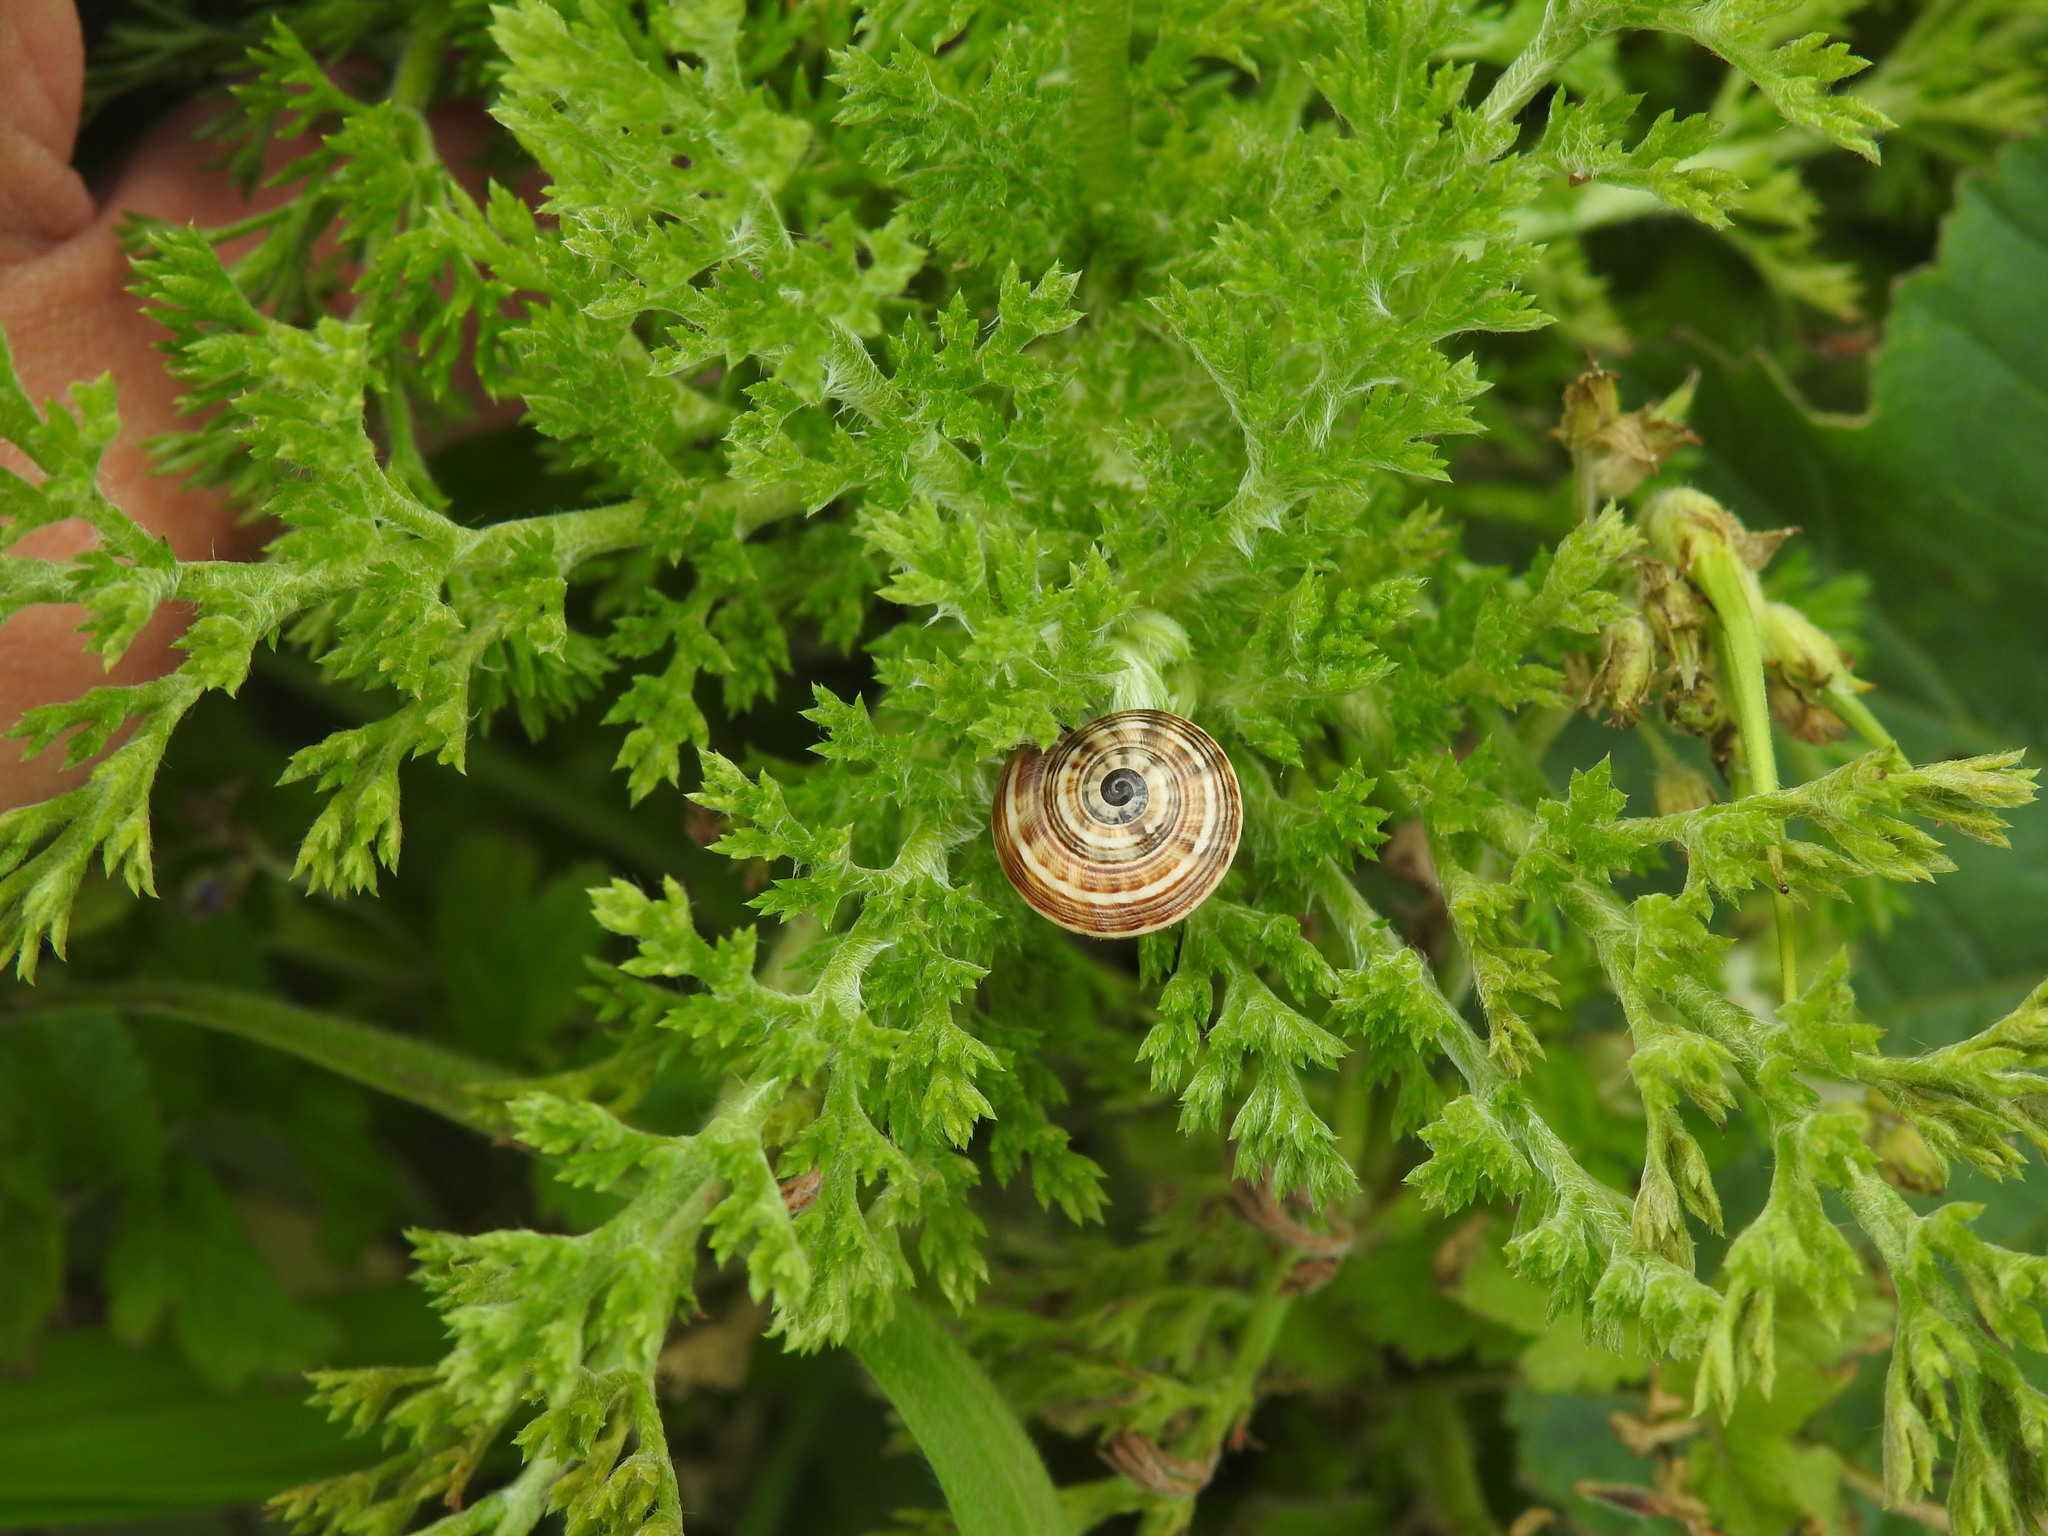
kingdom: Animalia
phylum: Mollusca
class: Gastropoda
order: Stylommatophora
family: Helicidae
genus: Theba
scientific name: Theba pisana
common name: White snail
